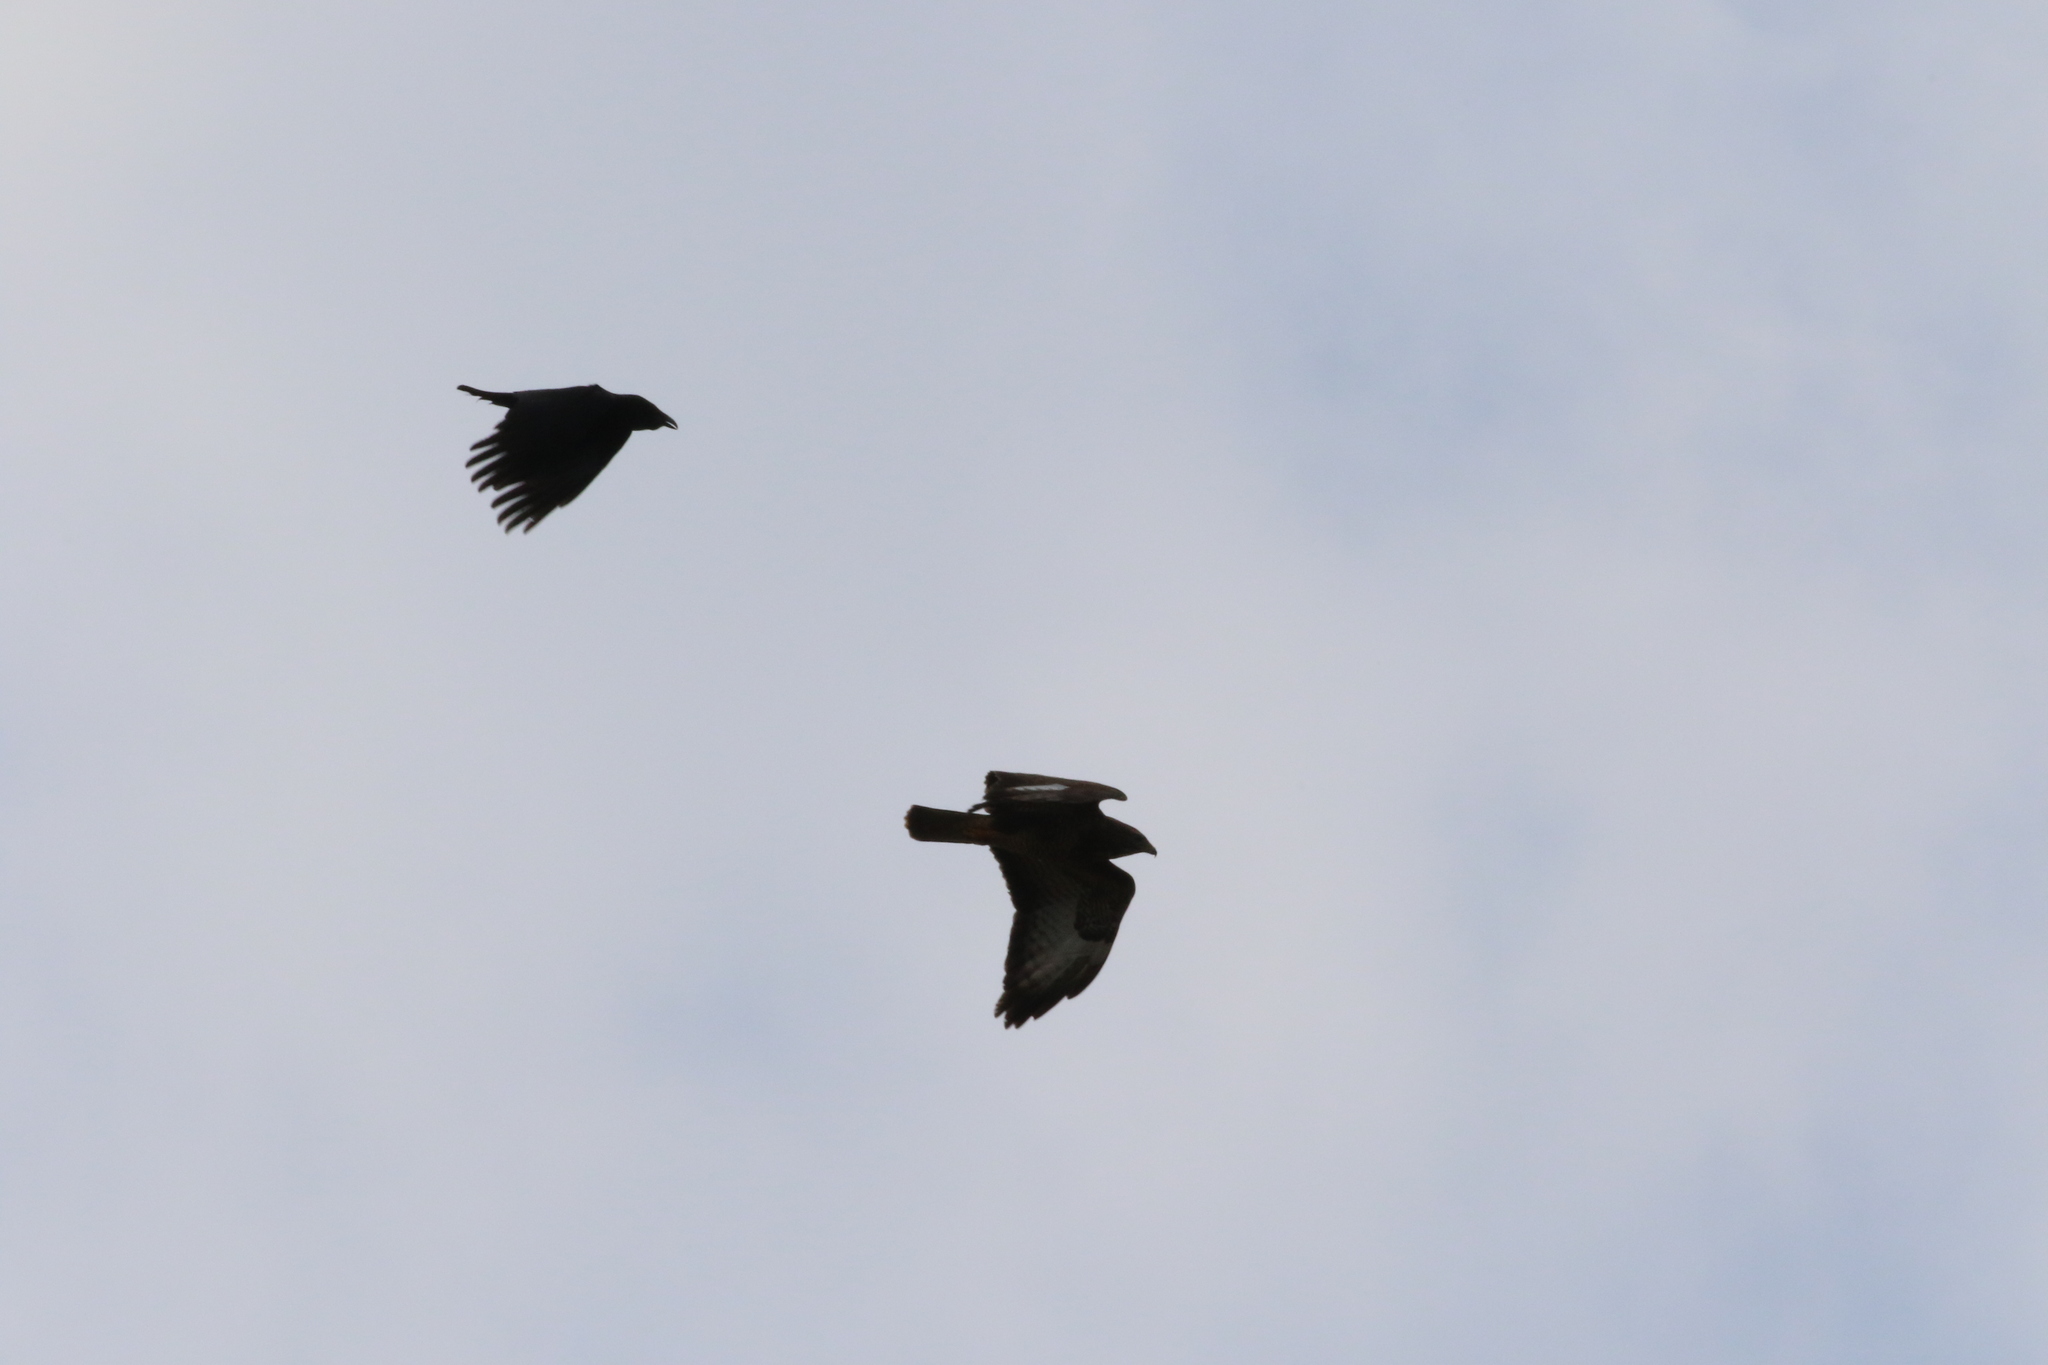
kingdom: Animalia
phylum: Chordata
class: Aves
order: Accipitriformes
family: Accipitridae
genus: Buteo
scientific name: Buteo buteo
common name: Common buzzard
